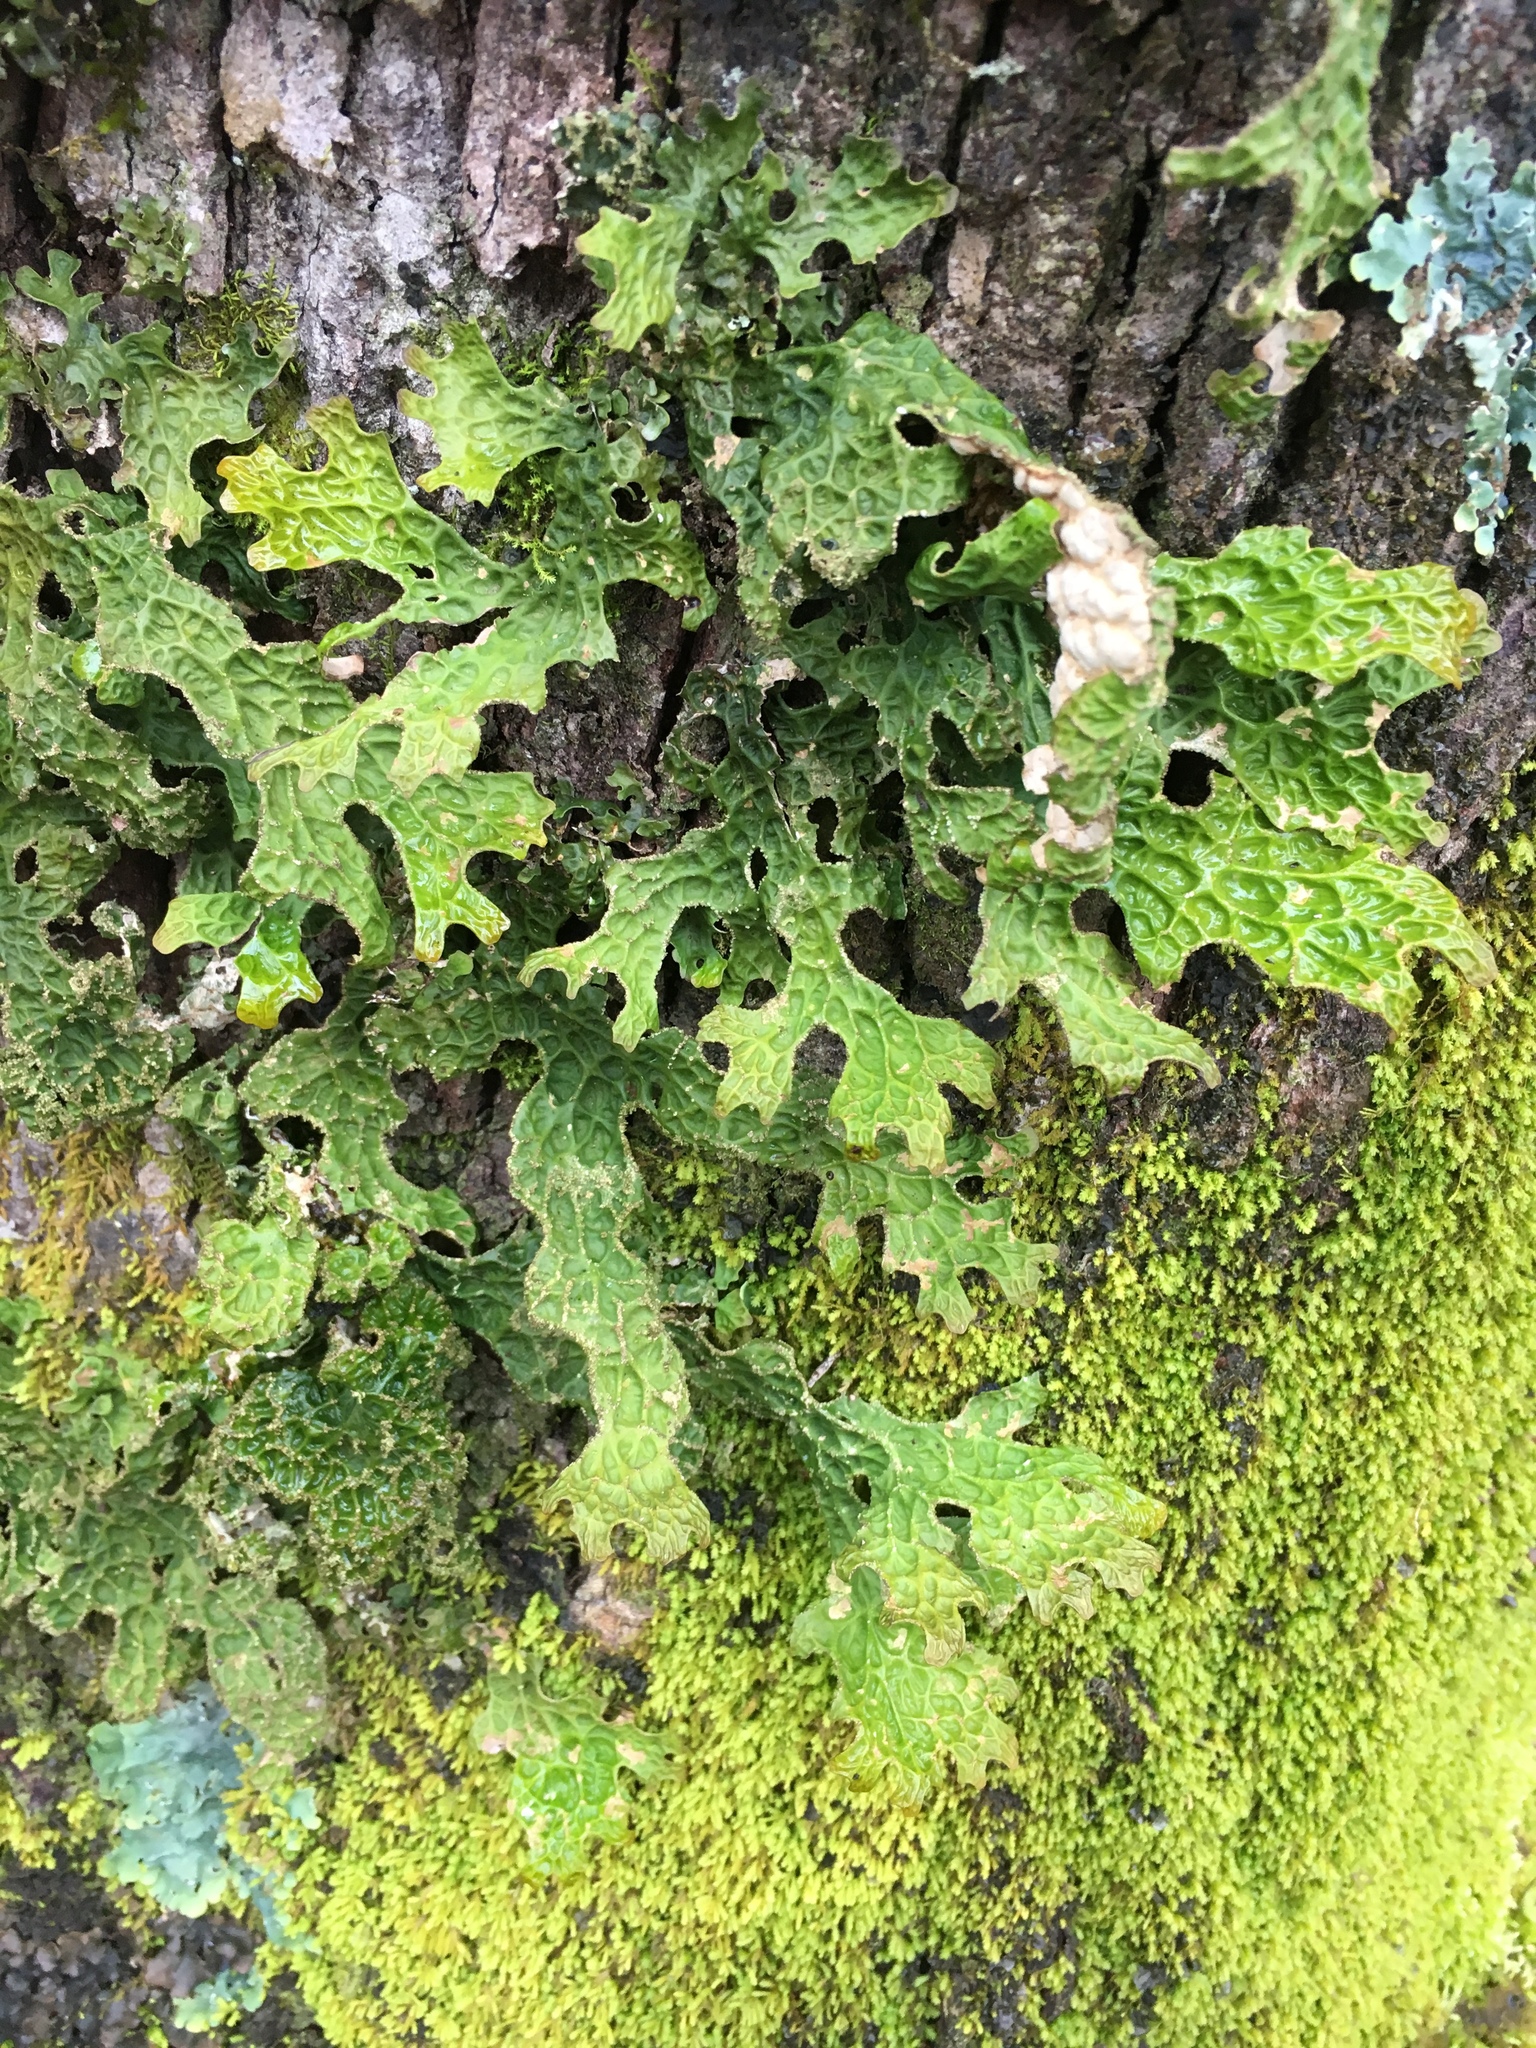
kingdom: Fungi
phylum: Ascomycota
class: Lecanoromycetes
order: Peltigerales
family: Lobariaceae
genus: Lobaria
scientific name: Lobaria pulmonaria
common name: Lungwort
